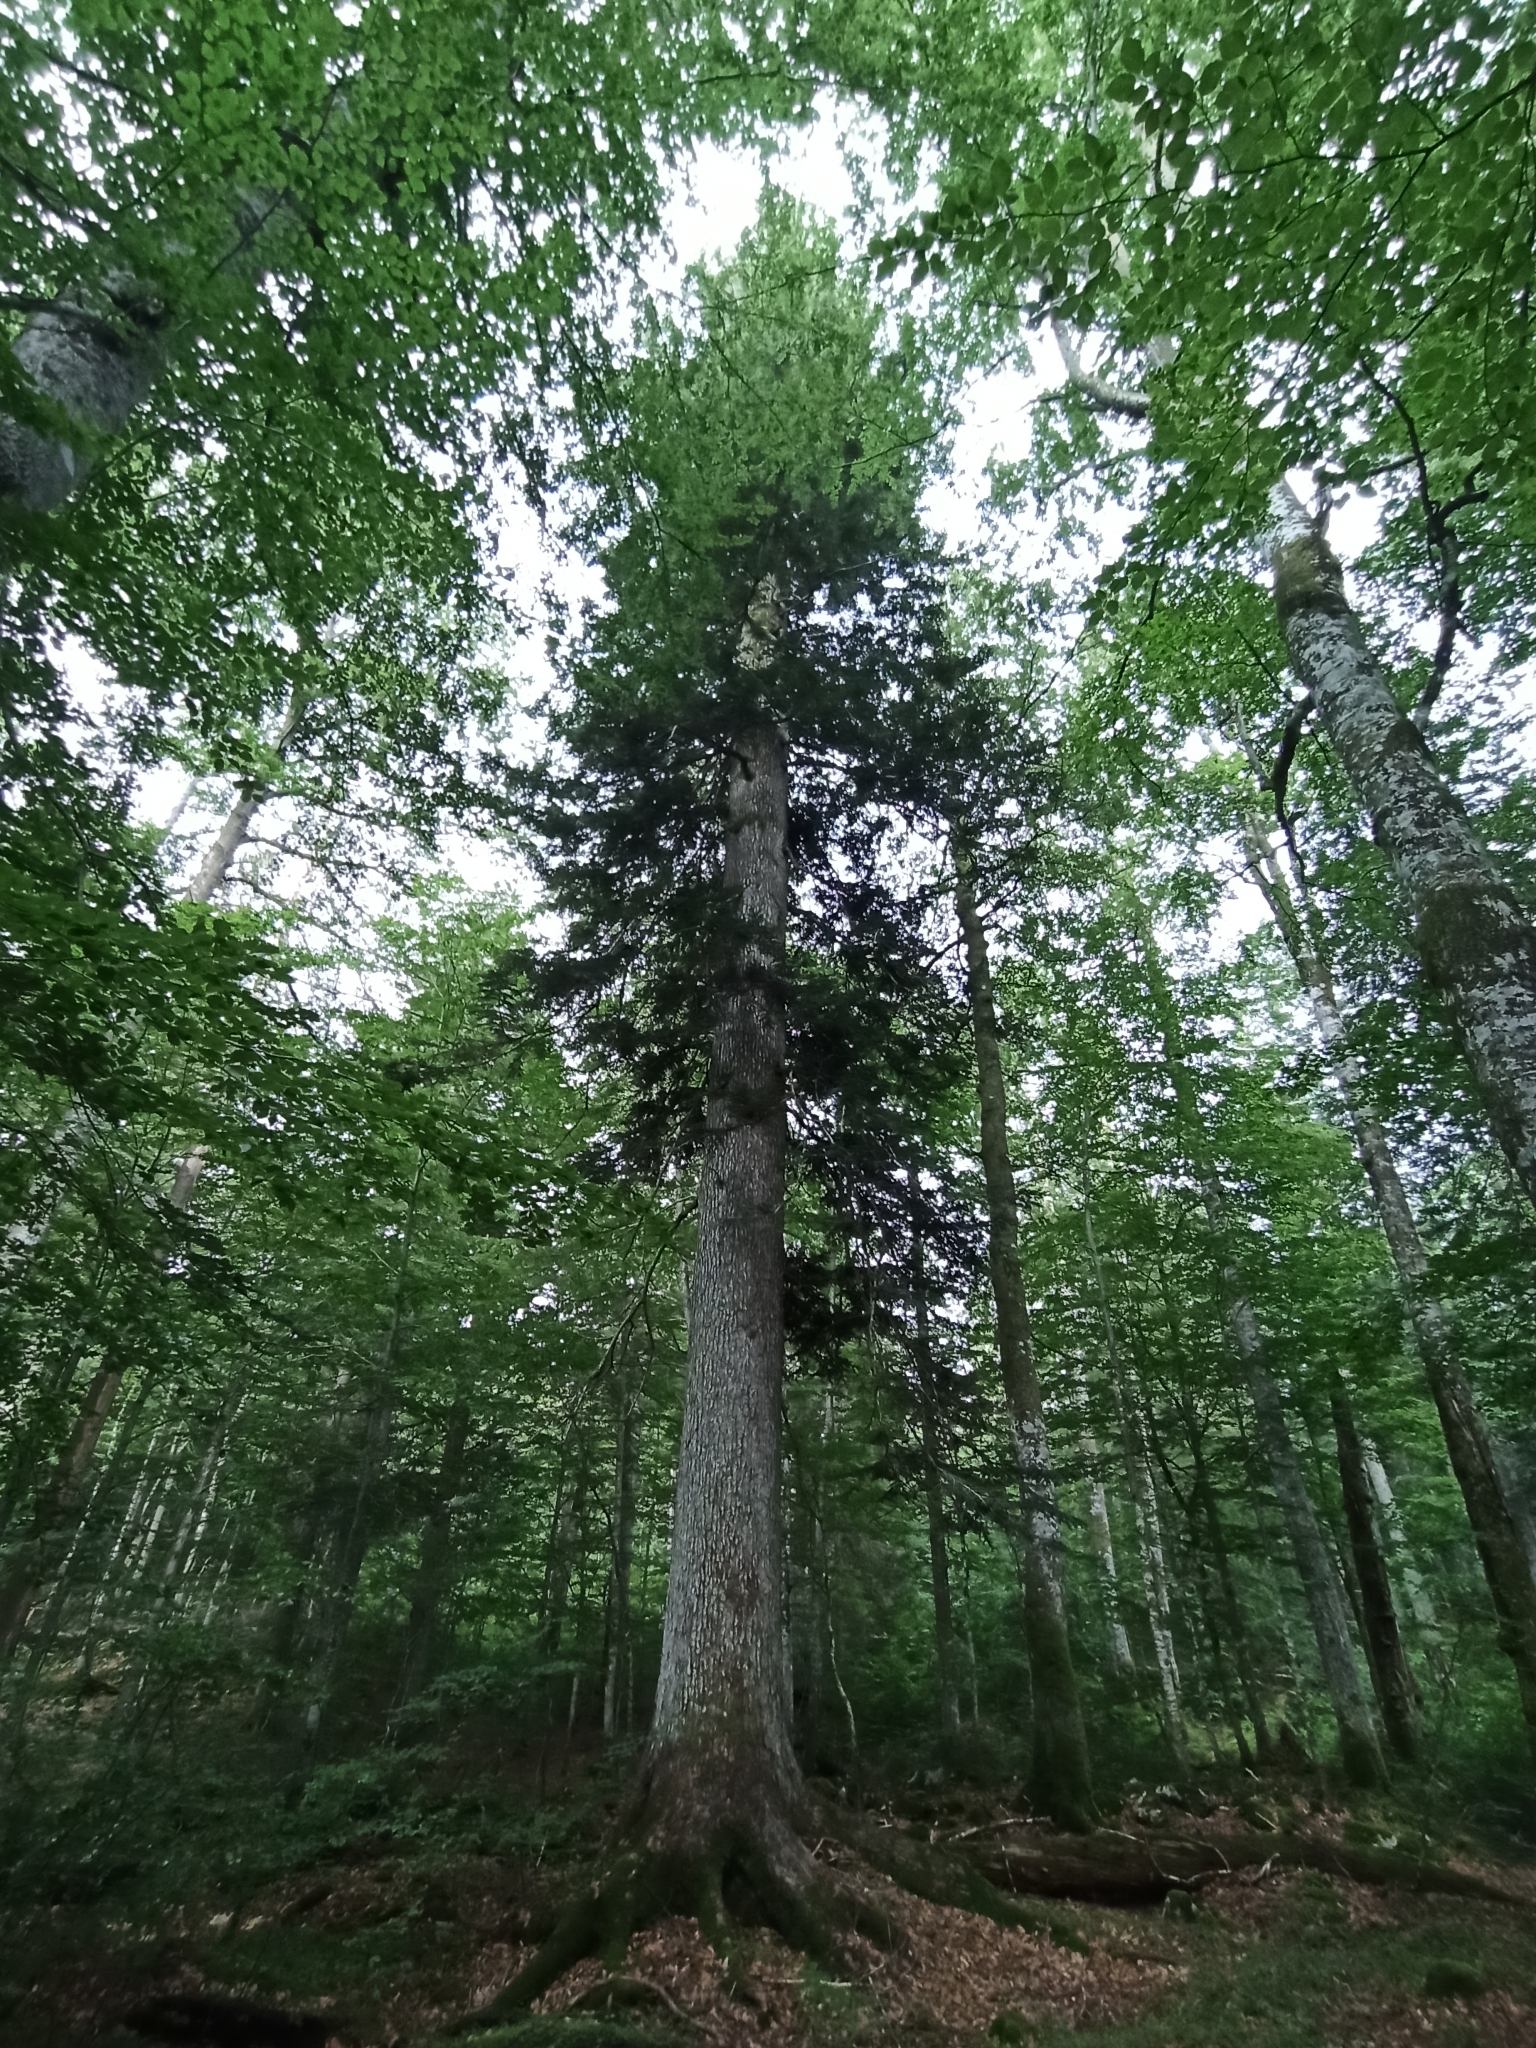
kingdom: Plantae
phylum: Tracheophyta
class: Pinopsida
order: Pinales
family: Pinaceae
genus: Abies
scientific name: Abies alba
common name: Silver fir
